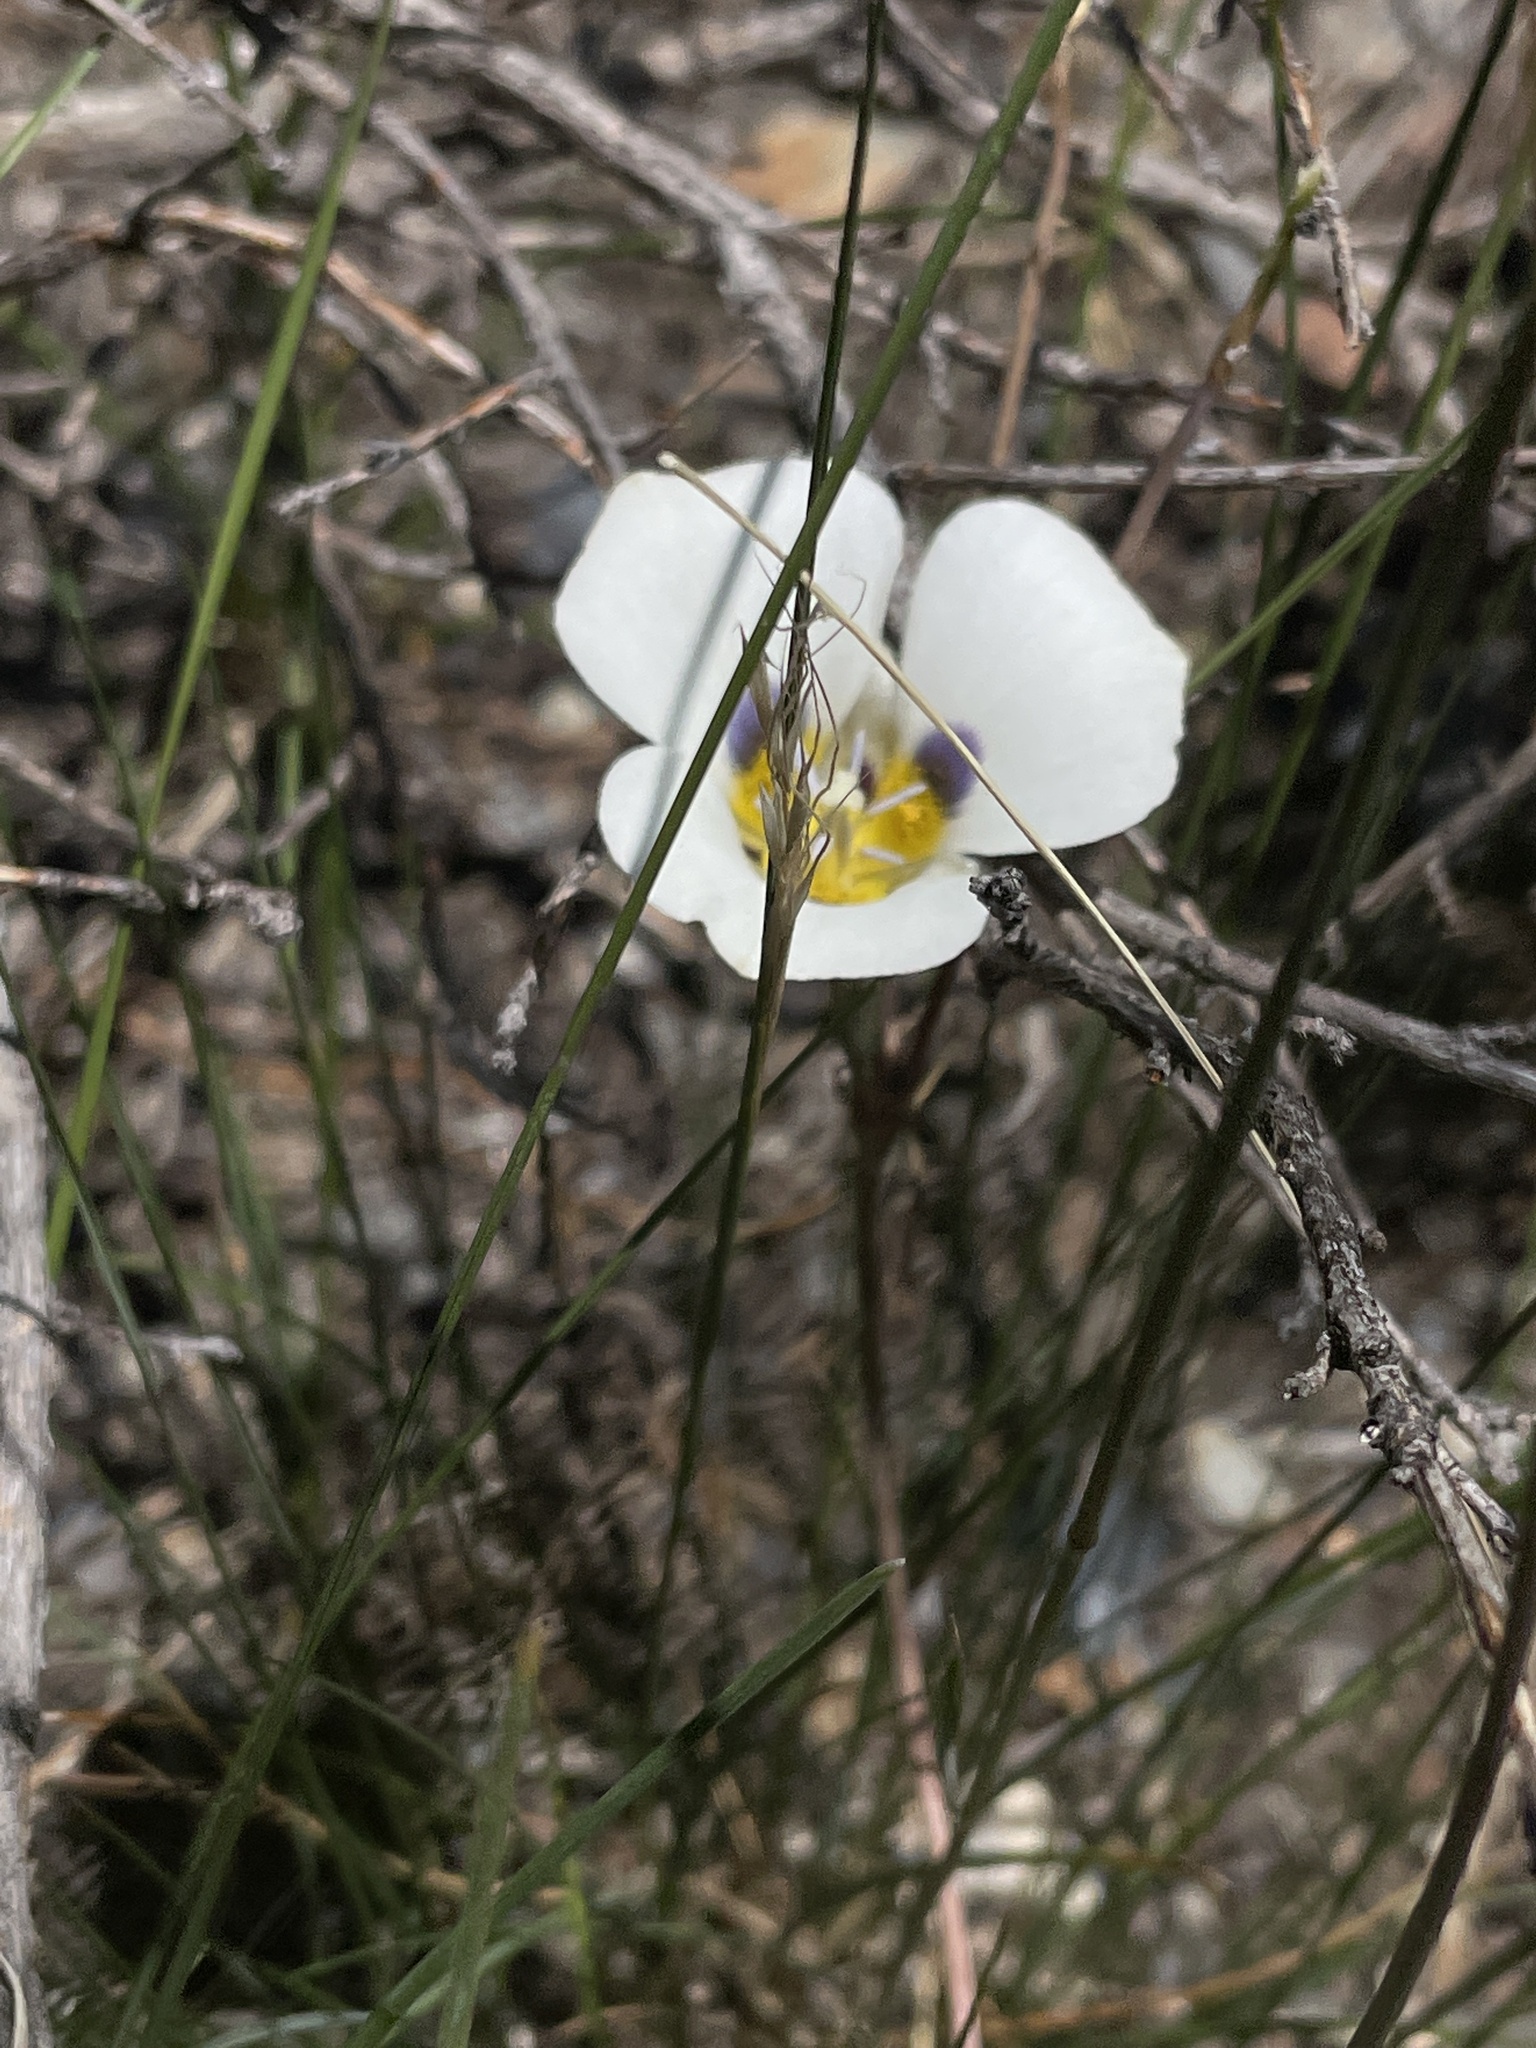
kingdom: Plantae
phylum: Tracheophyta
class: Liliopsida
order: Liliales
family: Liliaceae
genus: Calochortus
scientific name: Calochortus leichtlinii
